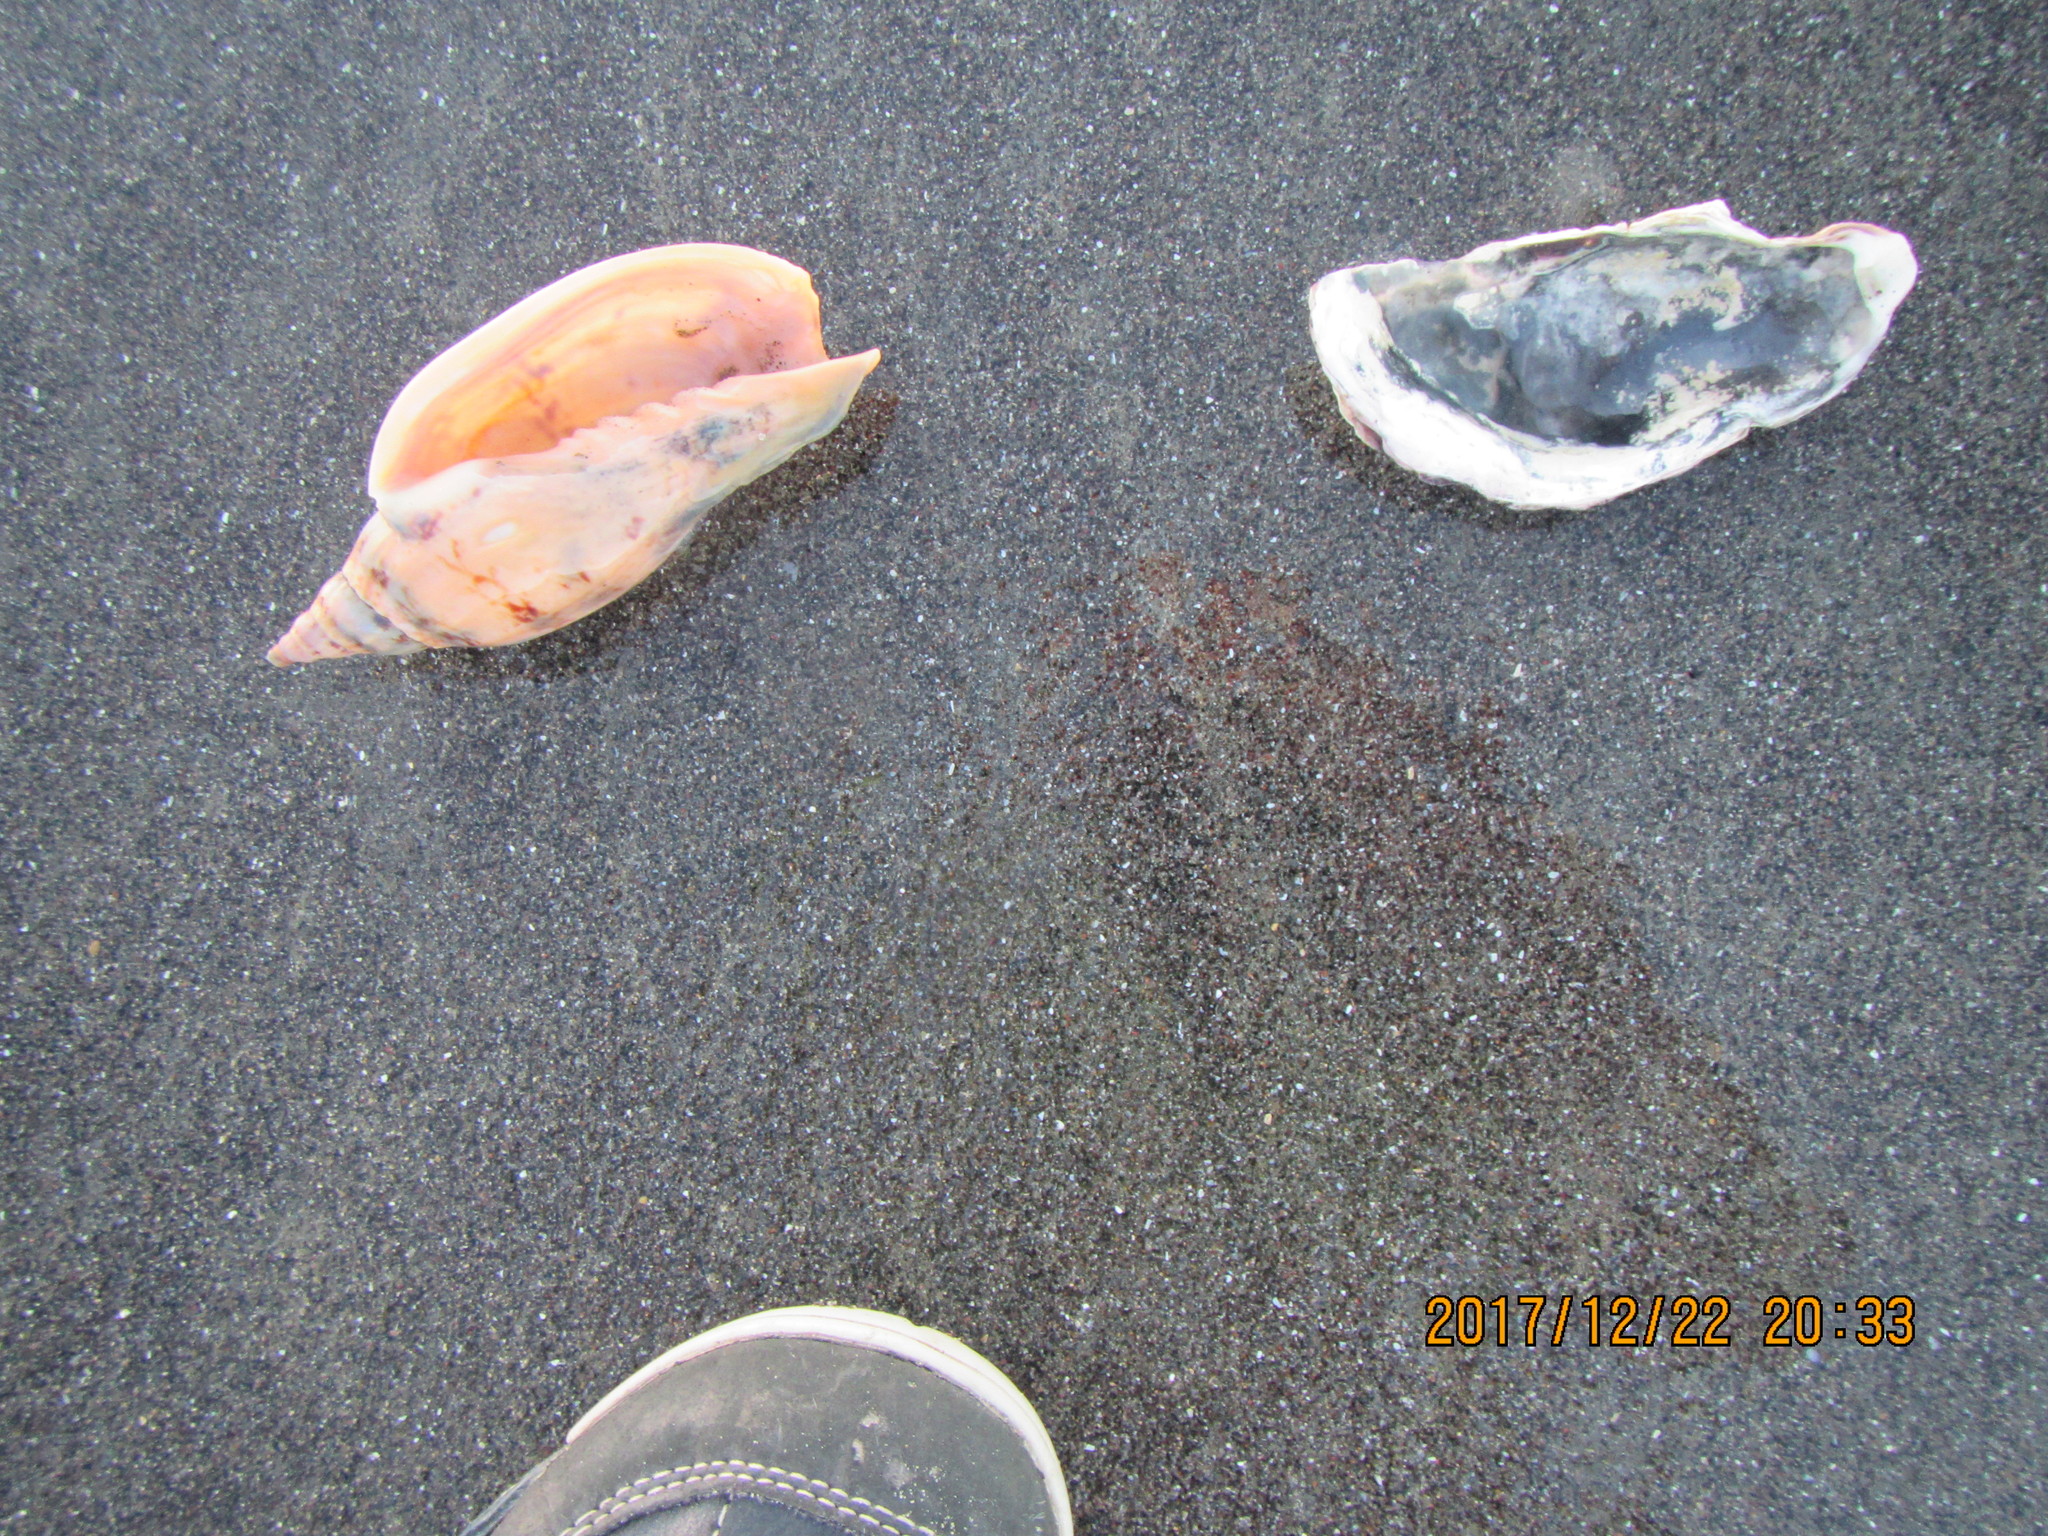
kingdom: Animalia
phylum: Mollusca
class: Gastropoda
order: Neogastropoda
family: Volutidae
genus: Alcithoe
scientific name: Alcithoe arabica
